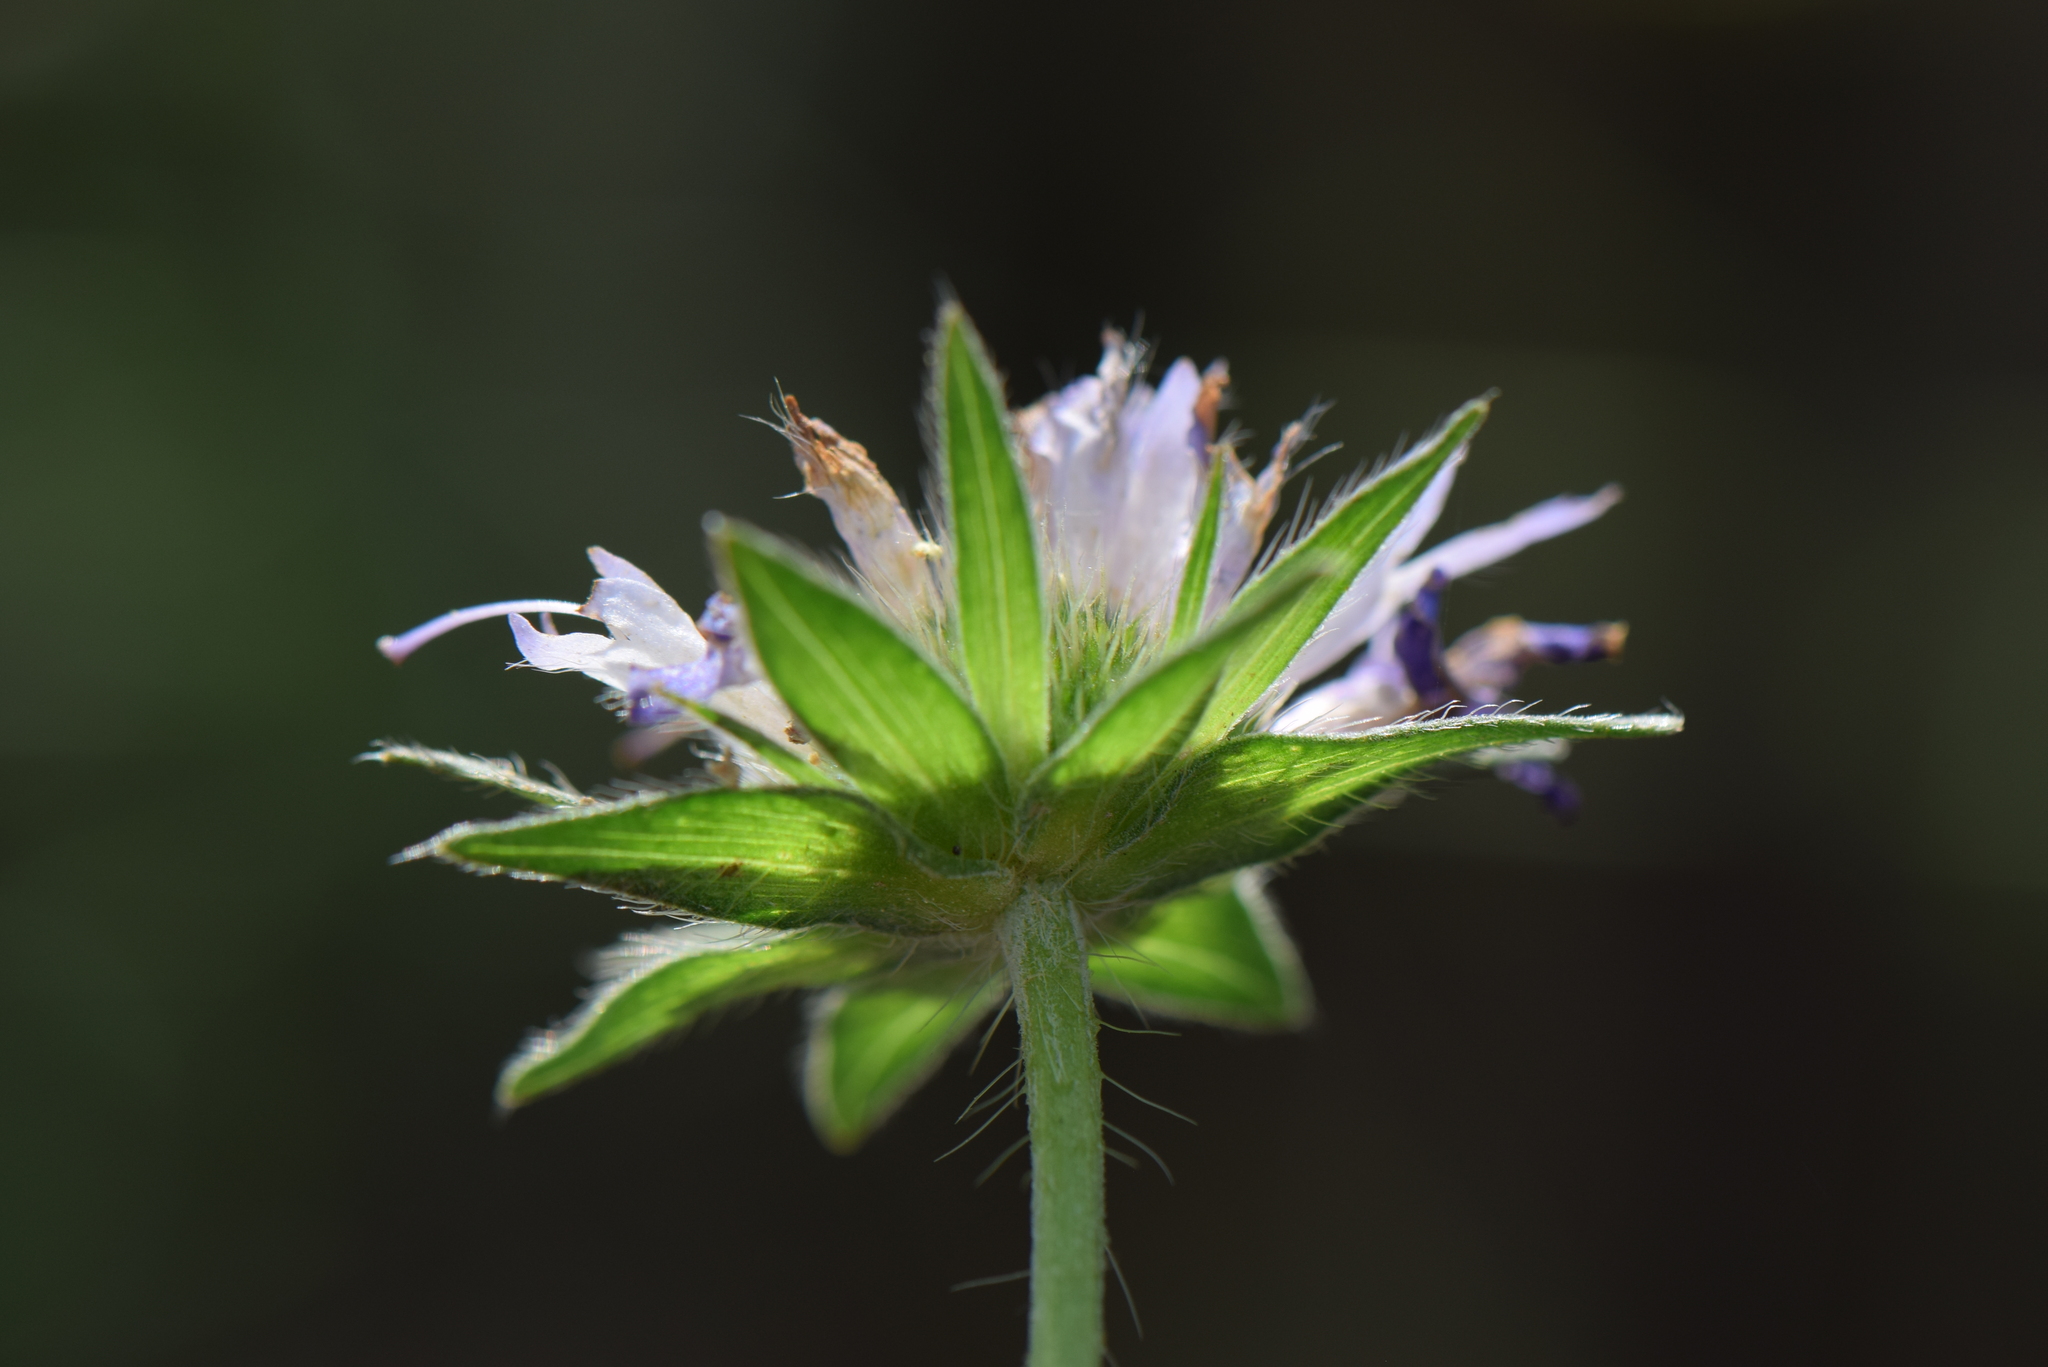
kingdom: Plantae
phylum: Tracheophyta
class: Magnoliopsida
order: Dipsacales
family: Caprifoliaceae
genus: Knautia
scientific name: Knautia arvensis
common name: Field scabiosa
